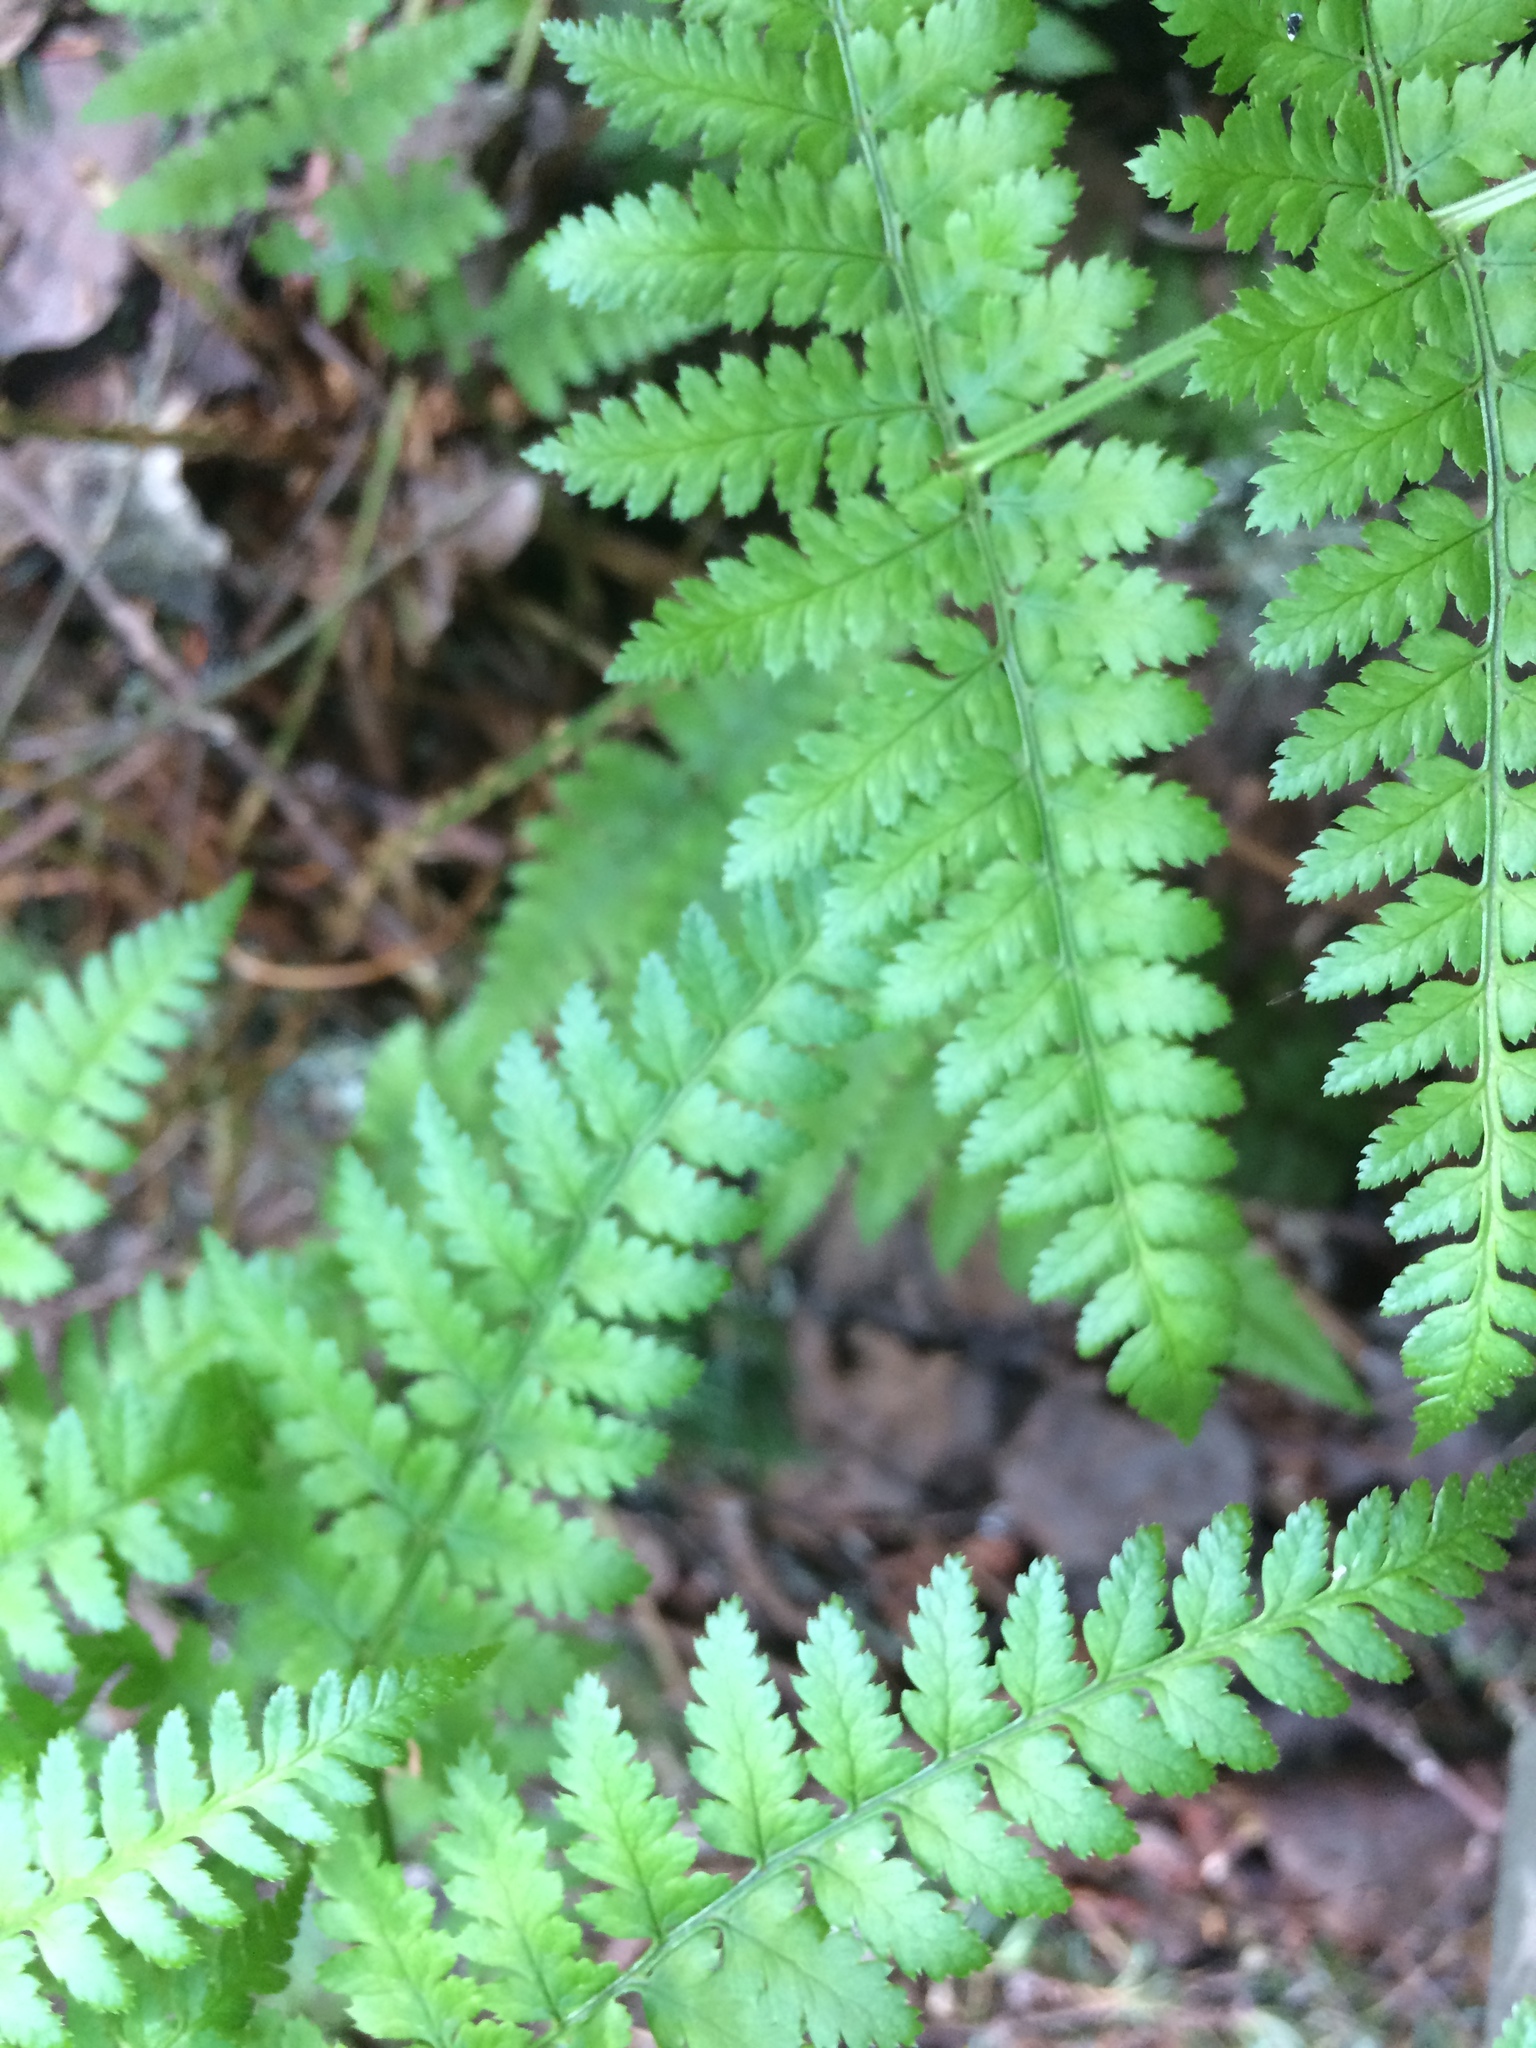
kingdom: Plantae
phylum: Tracheophyta
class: Polypodiopsida
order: Polypodiales
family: Dryopteridaceae
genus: Dryopteris
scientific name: Dryopteris intermedia
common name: Evergreen wood fern
